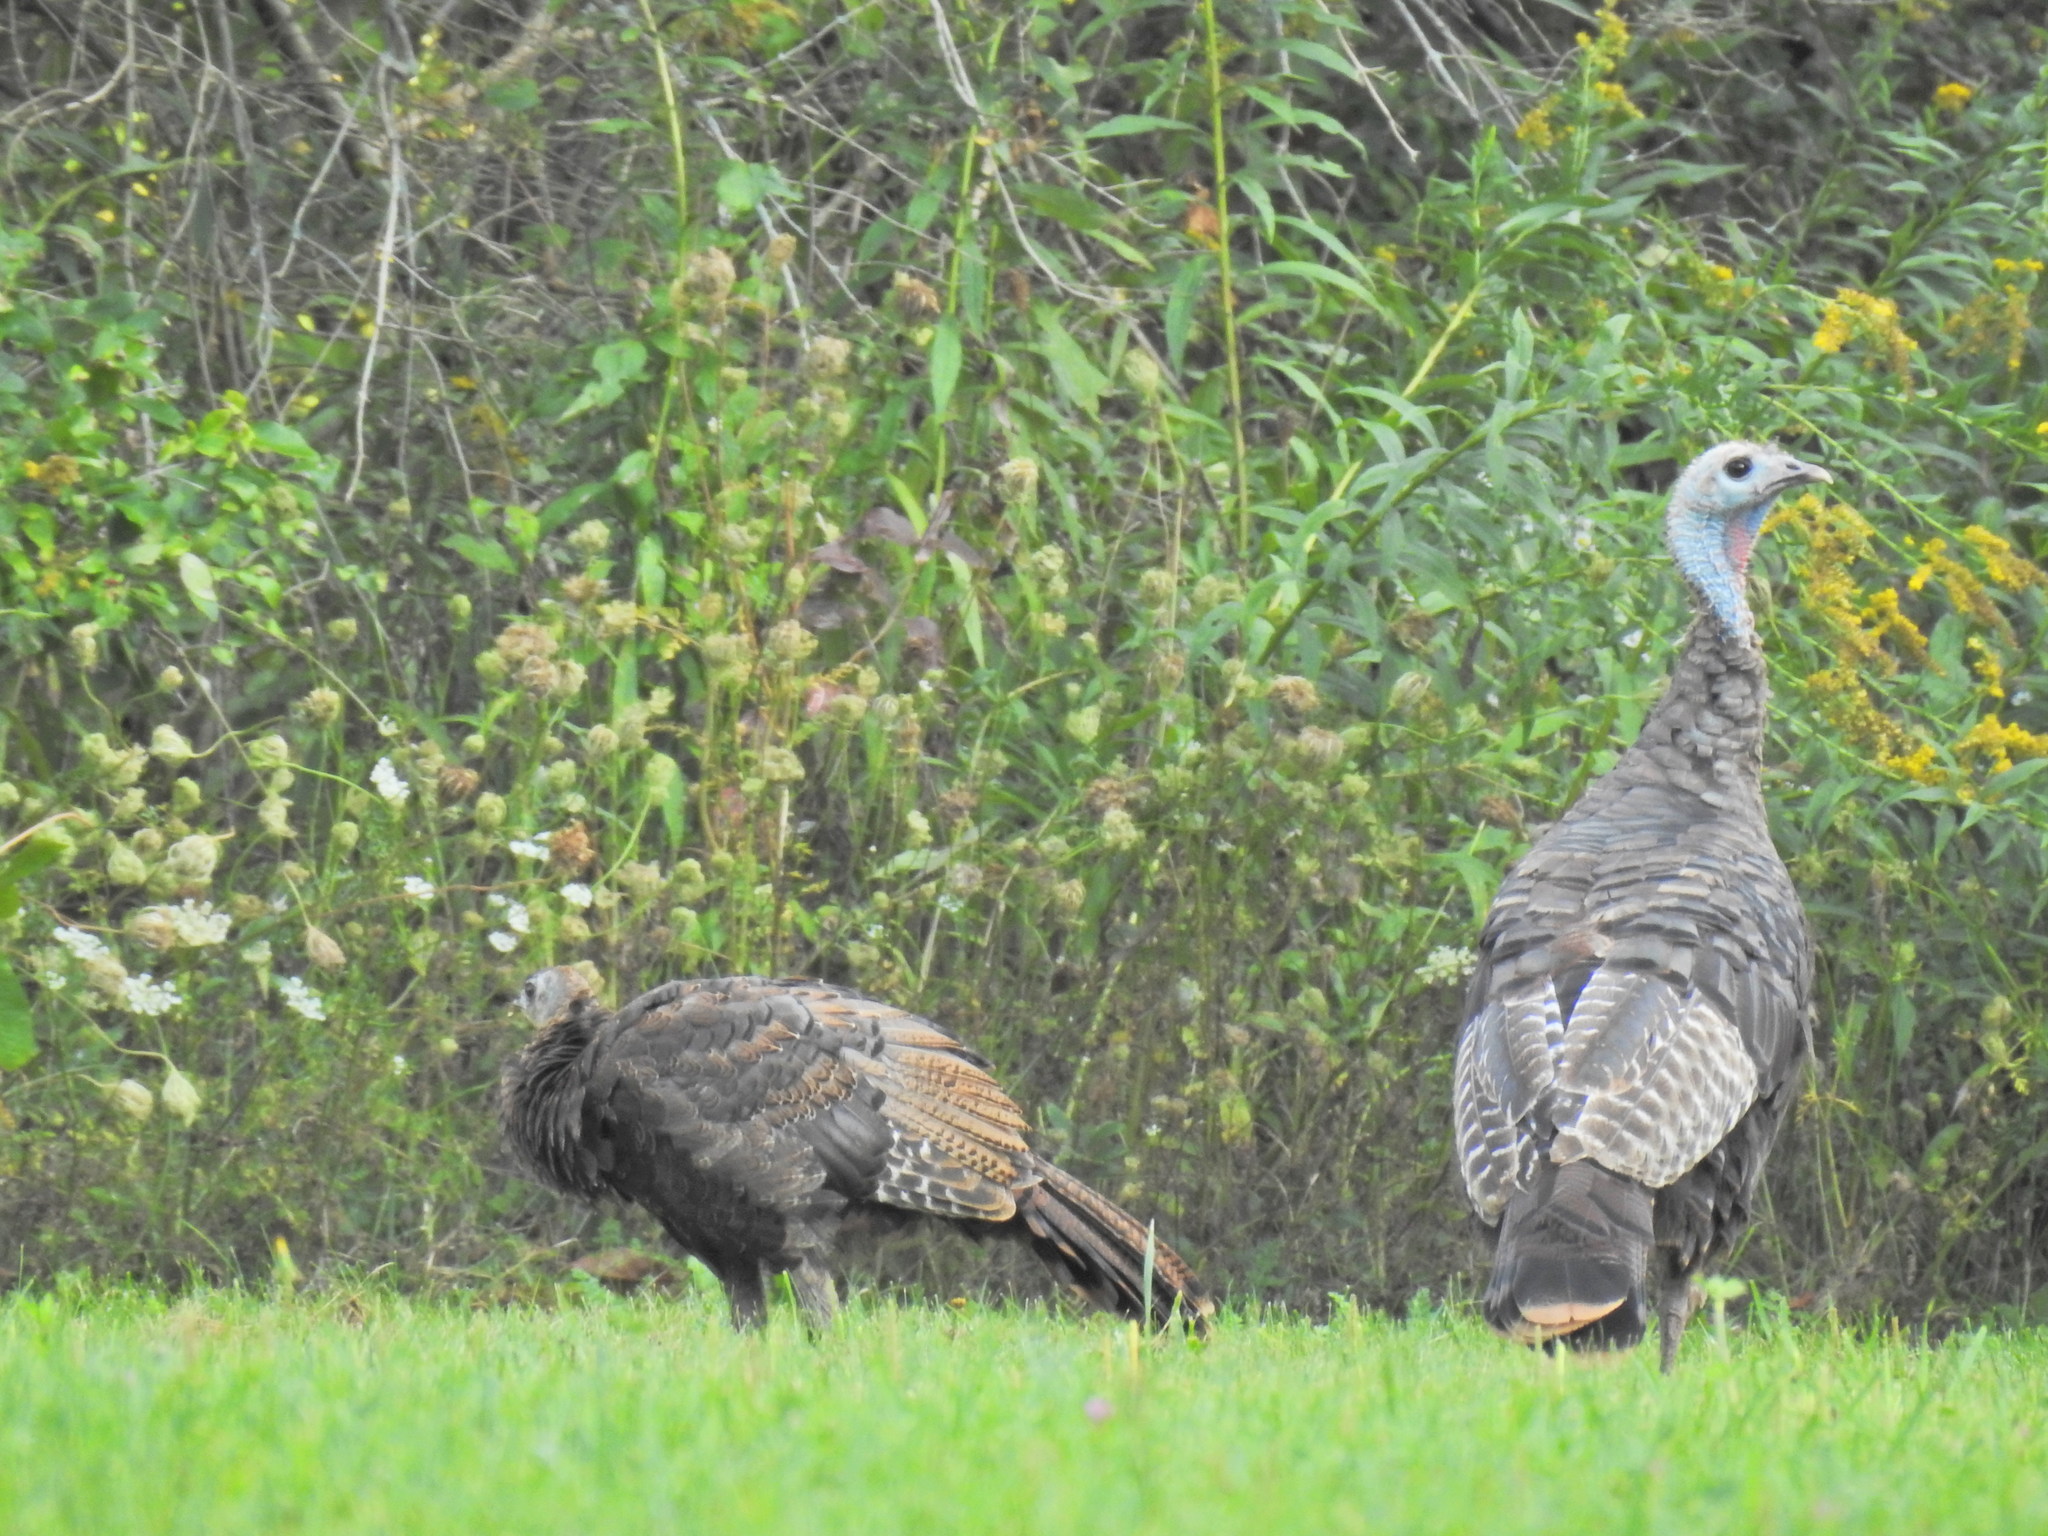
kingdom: Animalia
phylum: Chordata
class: Aves
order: Galliformes
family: Phasianidae
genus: Meleagris
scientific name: Meleagris gallopavo
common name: Wild turkey
